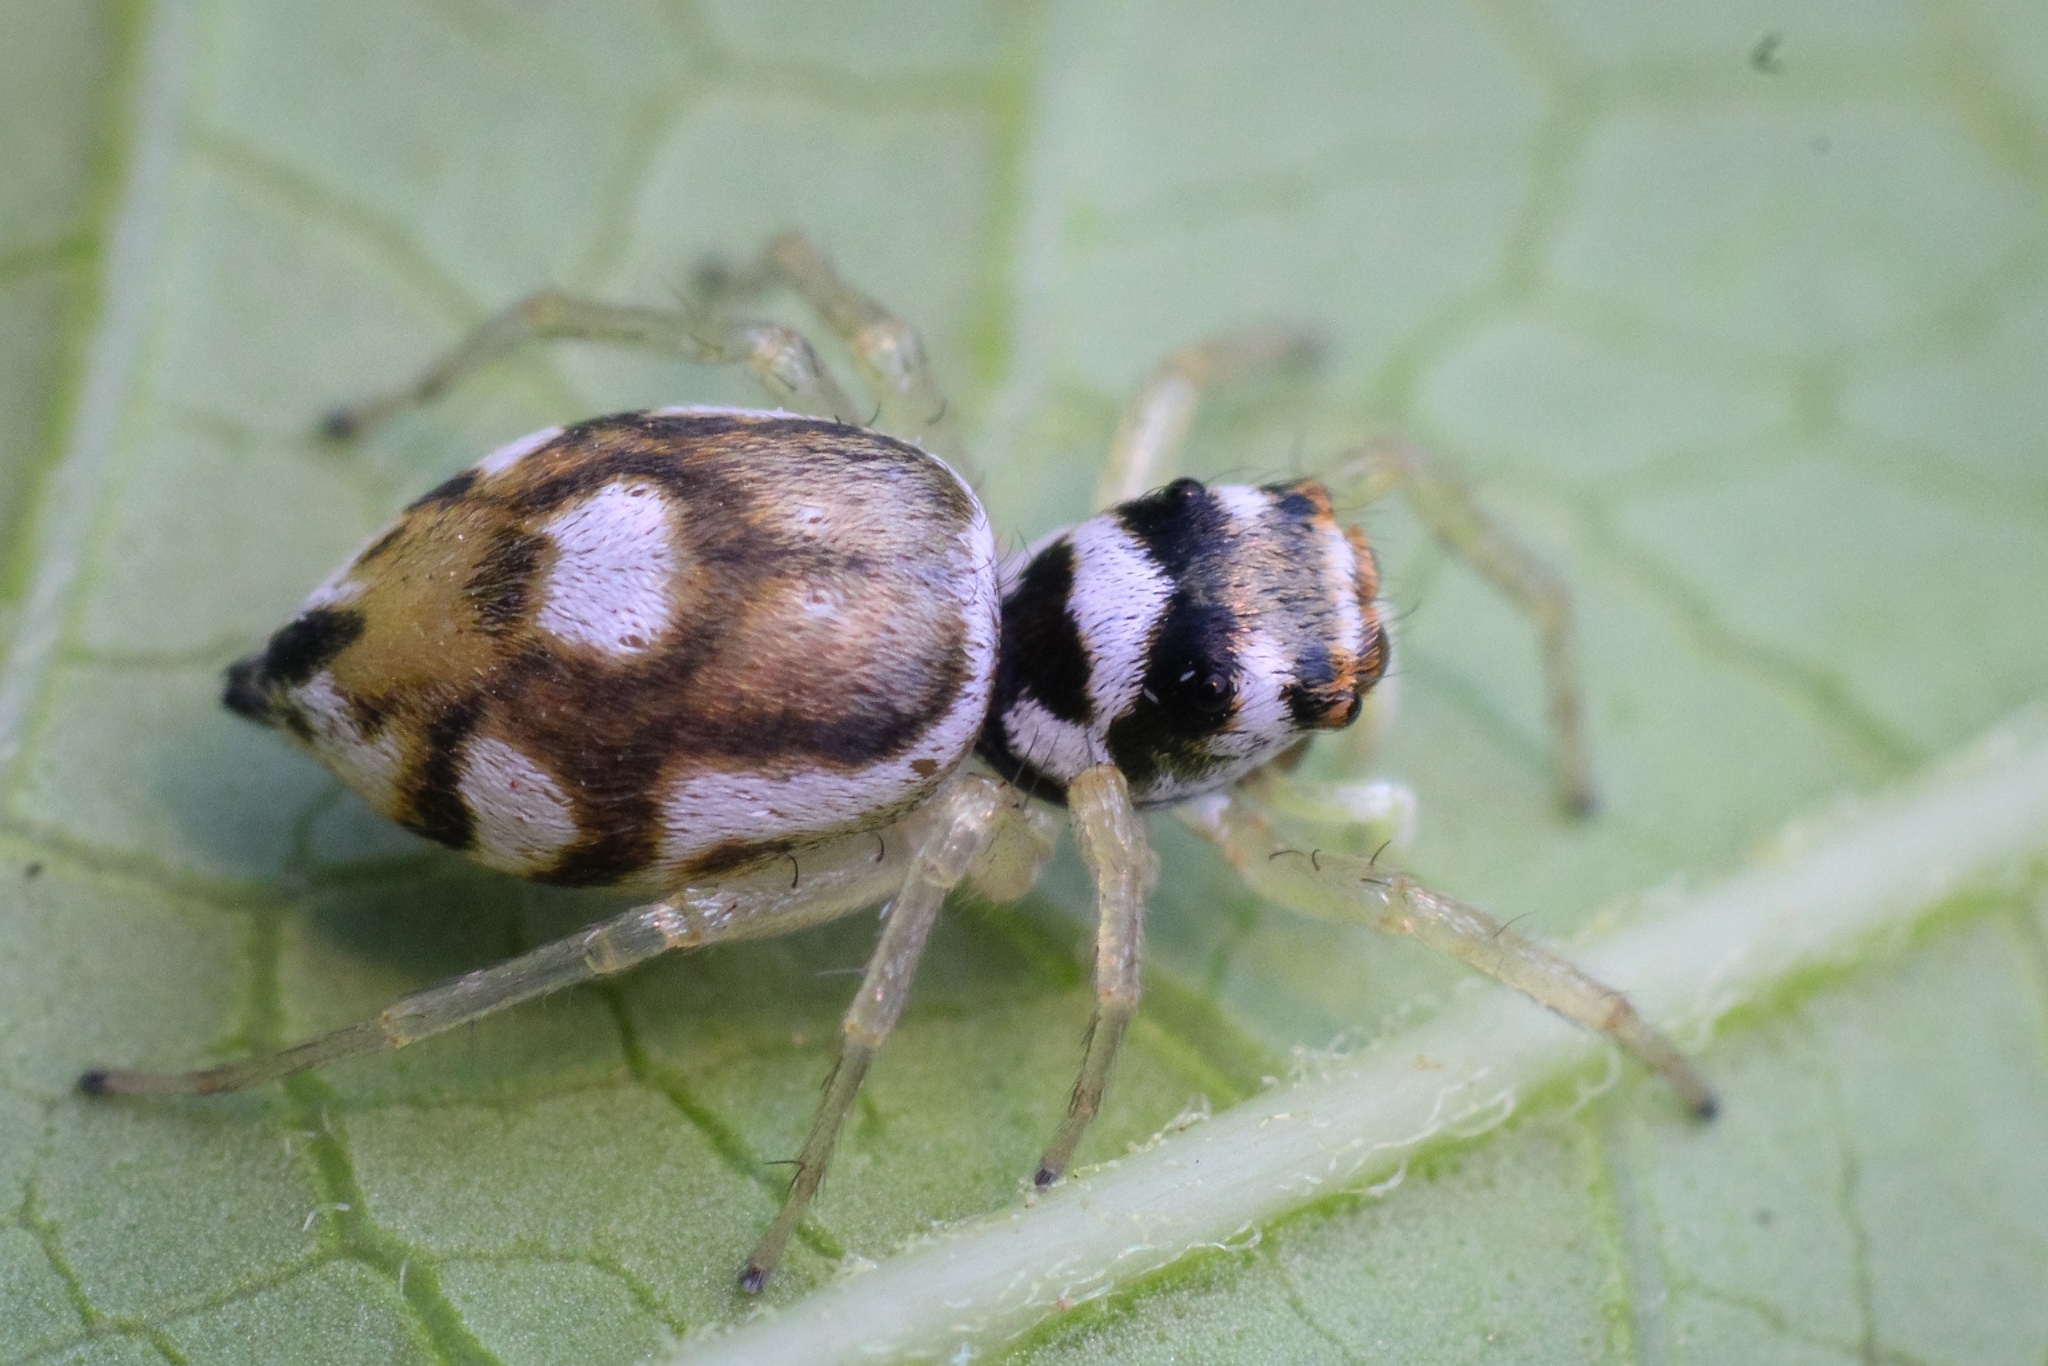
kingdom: Animalia
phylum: Arthropoda
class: Arachnida
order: Araneae
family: Salticidae
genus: Phintella
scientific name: Phintella aequipes
